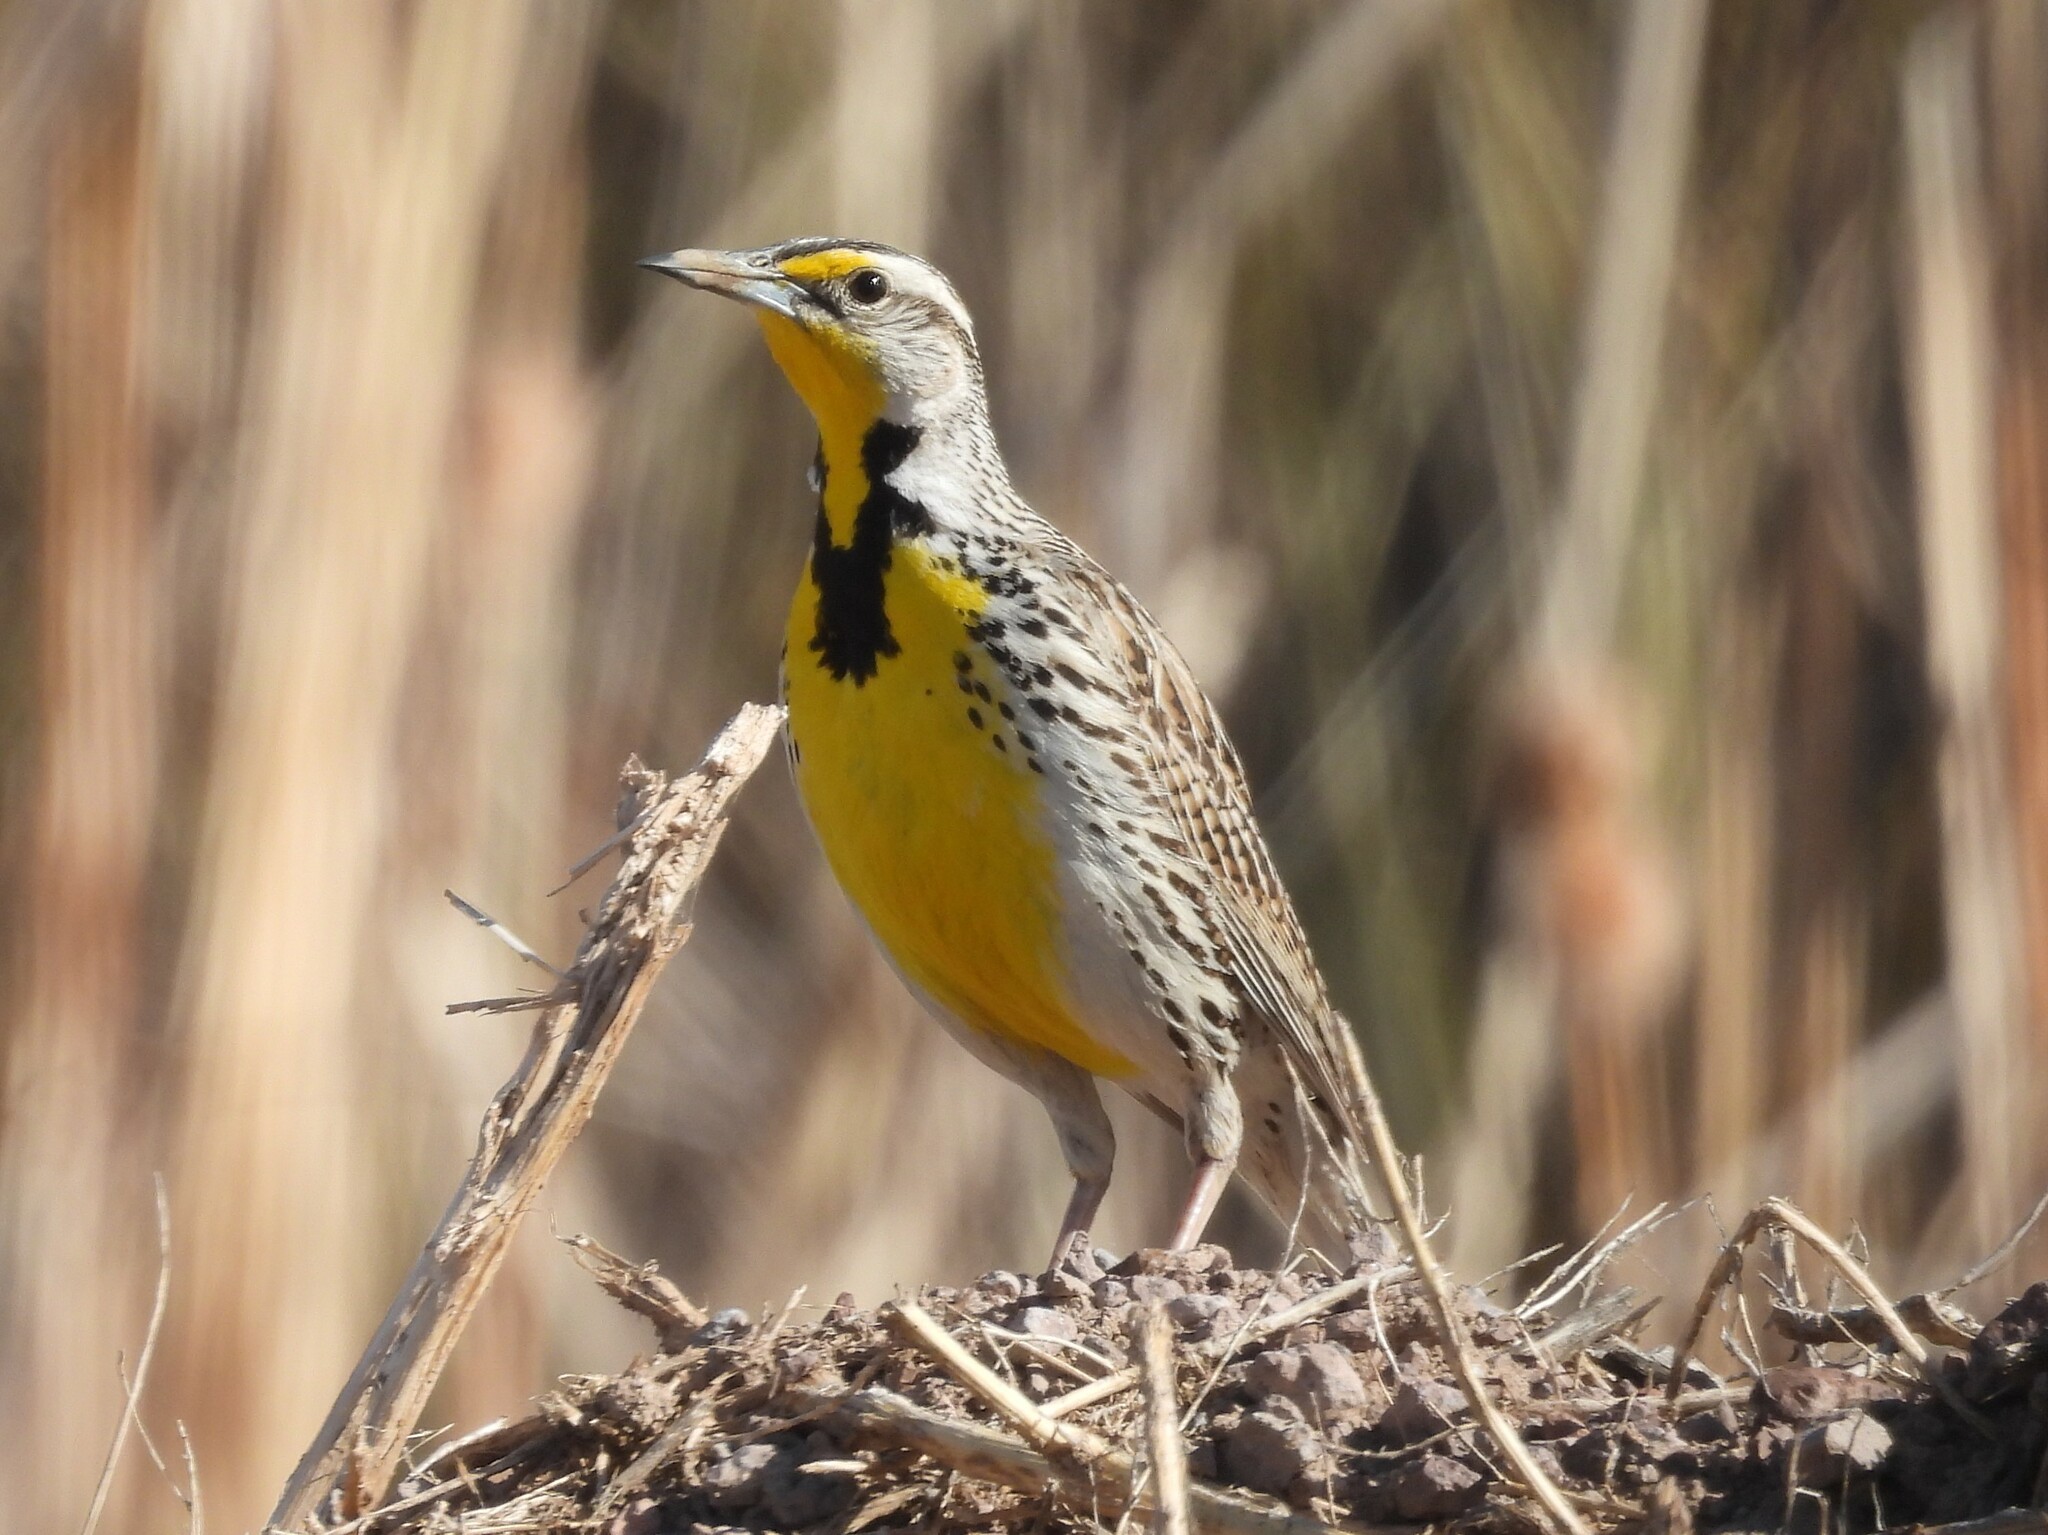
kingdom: Animalia
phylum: Chordata
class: Aves
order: Passeriformes
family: Icteridae
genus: Sturnella
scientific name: Sturnella neglecta
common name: Western meadowlark
